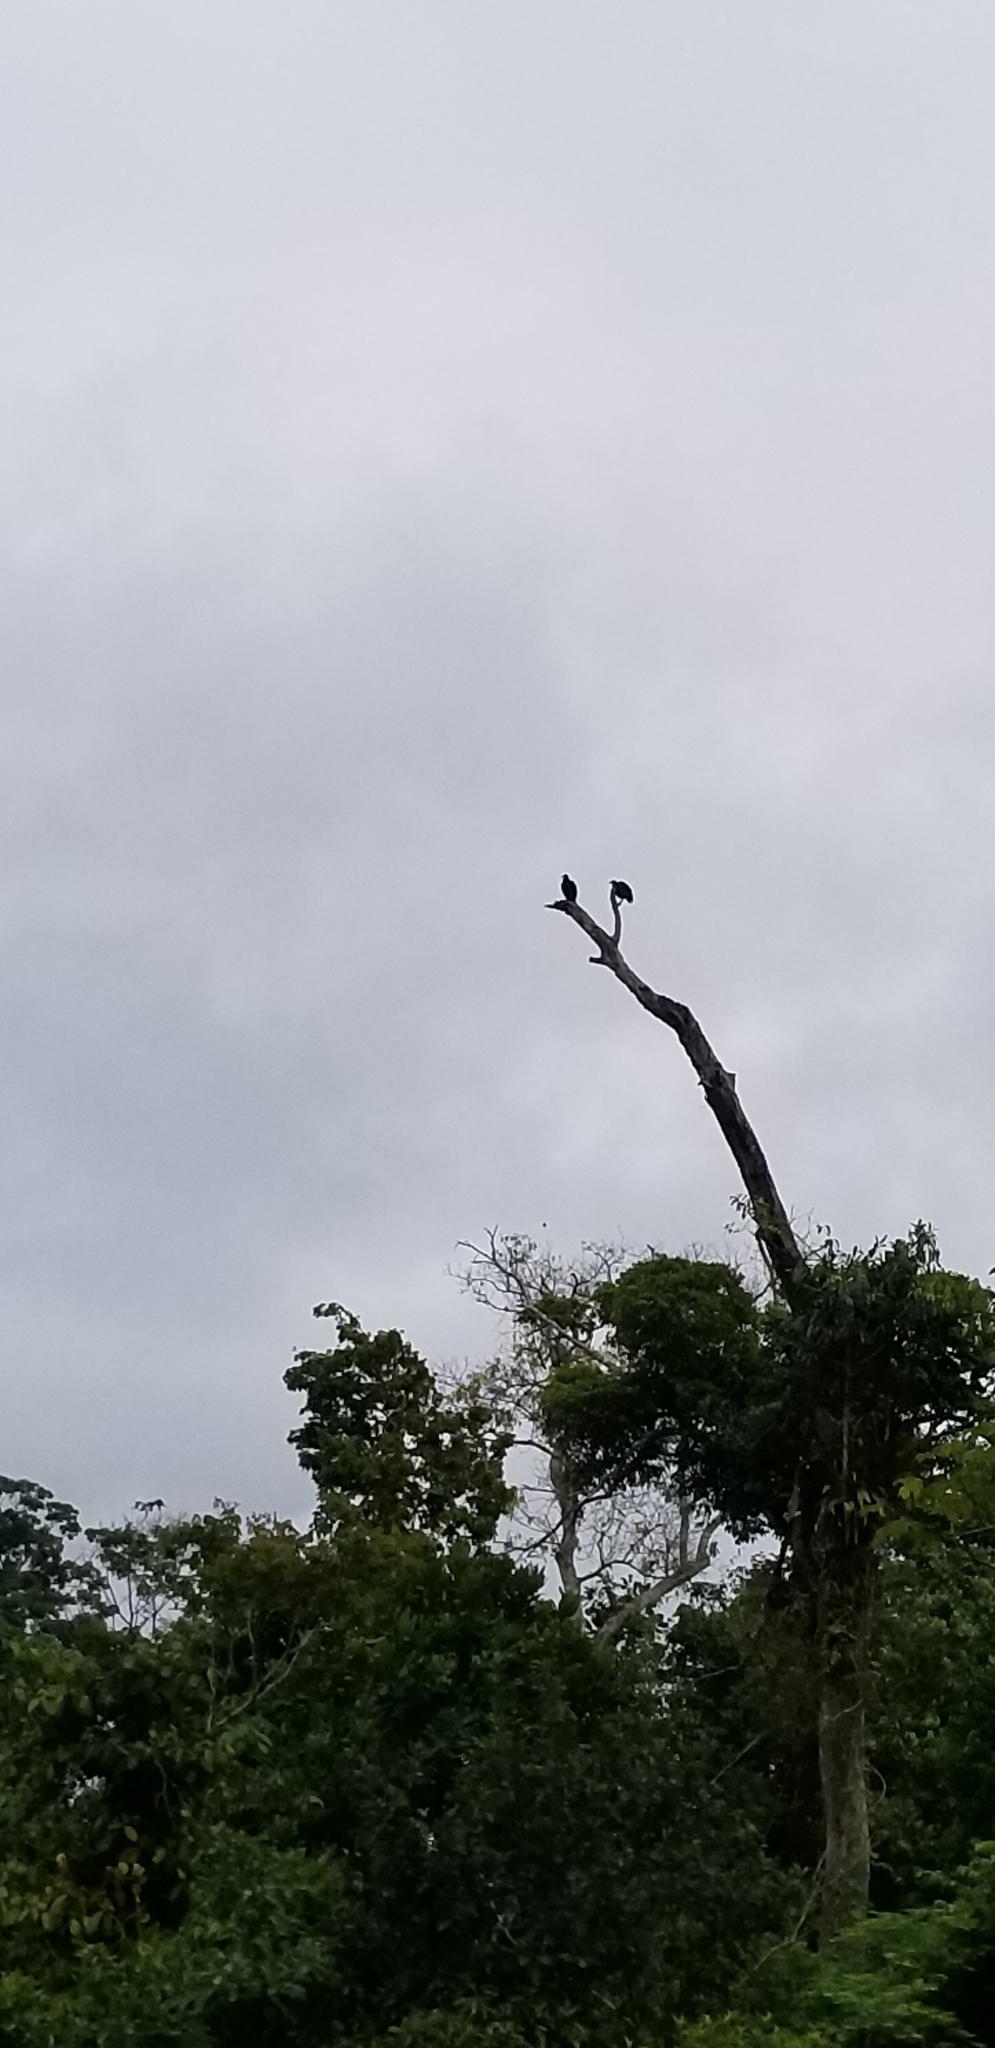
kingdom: Animalia
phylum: Chordata
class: Aves
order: Accipitriformes
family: Cathartidae
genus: Coragyps
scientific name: Coragyps atratus
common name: Black vulture
